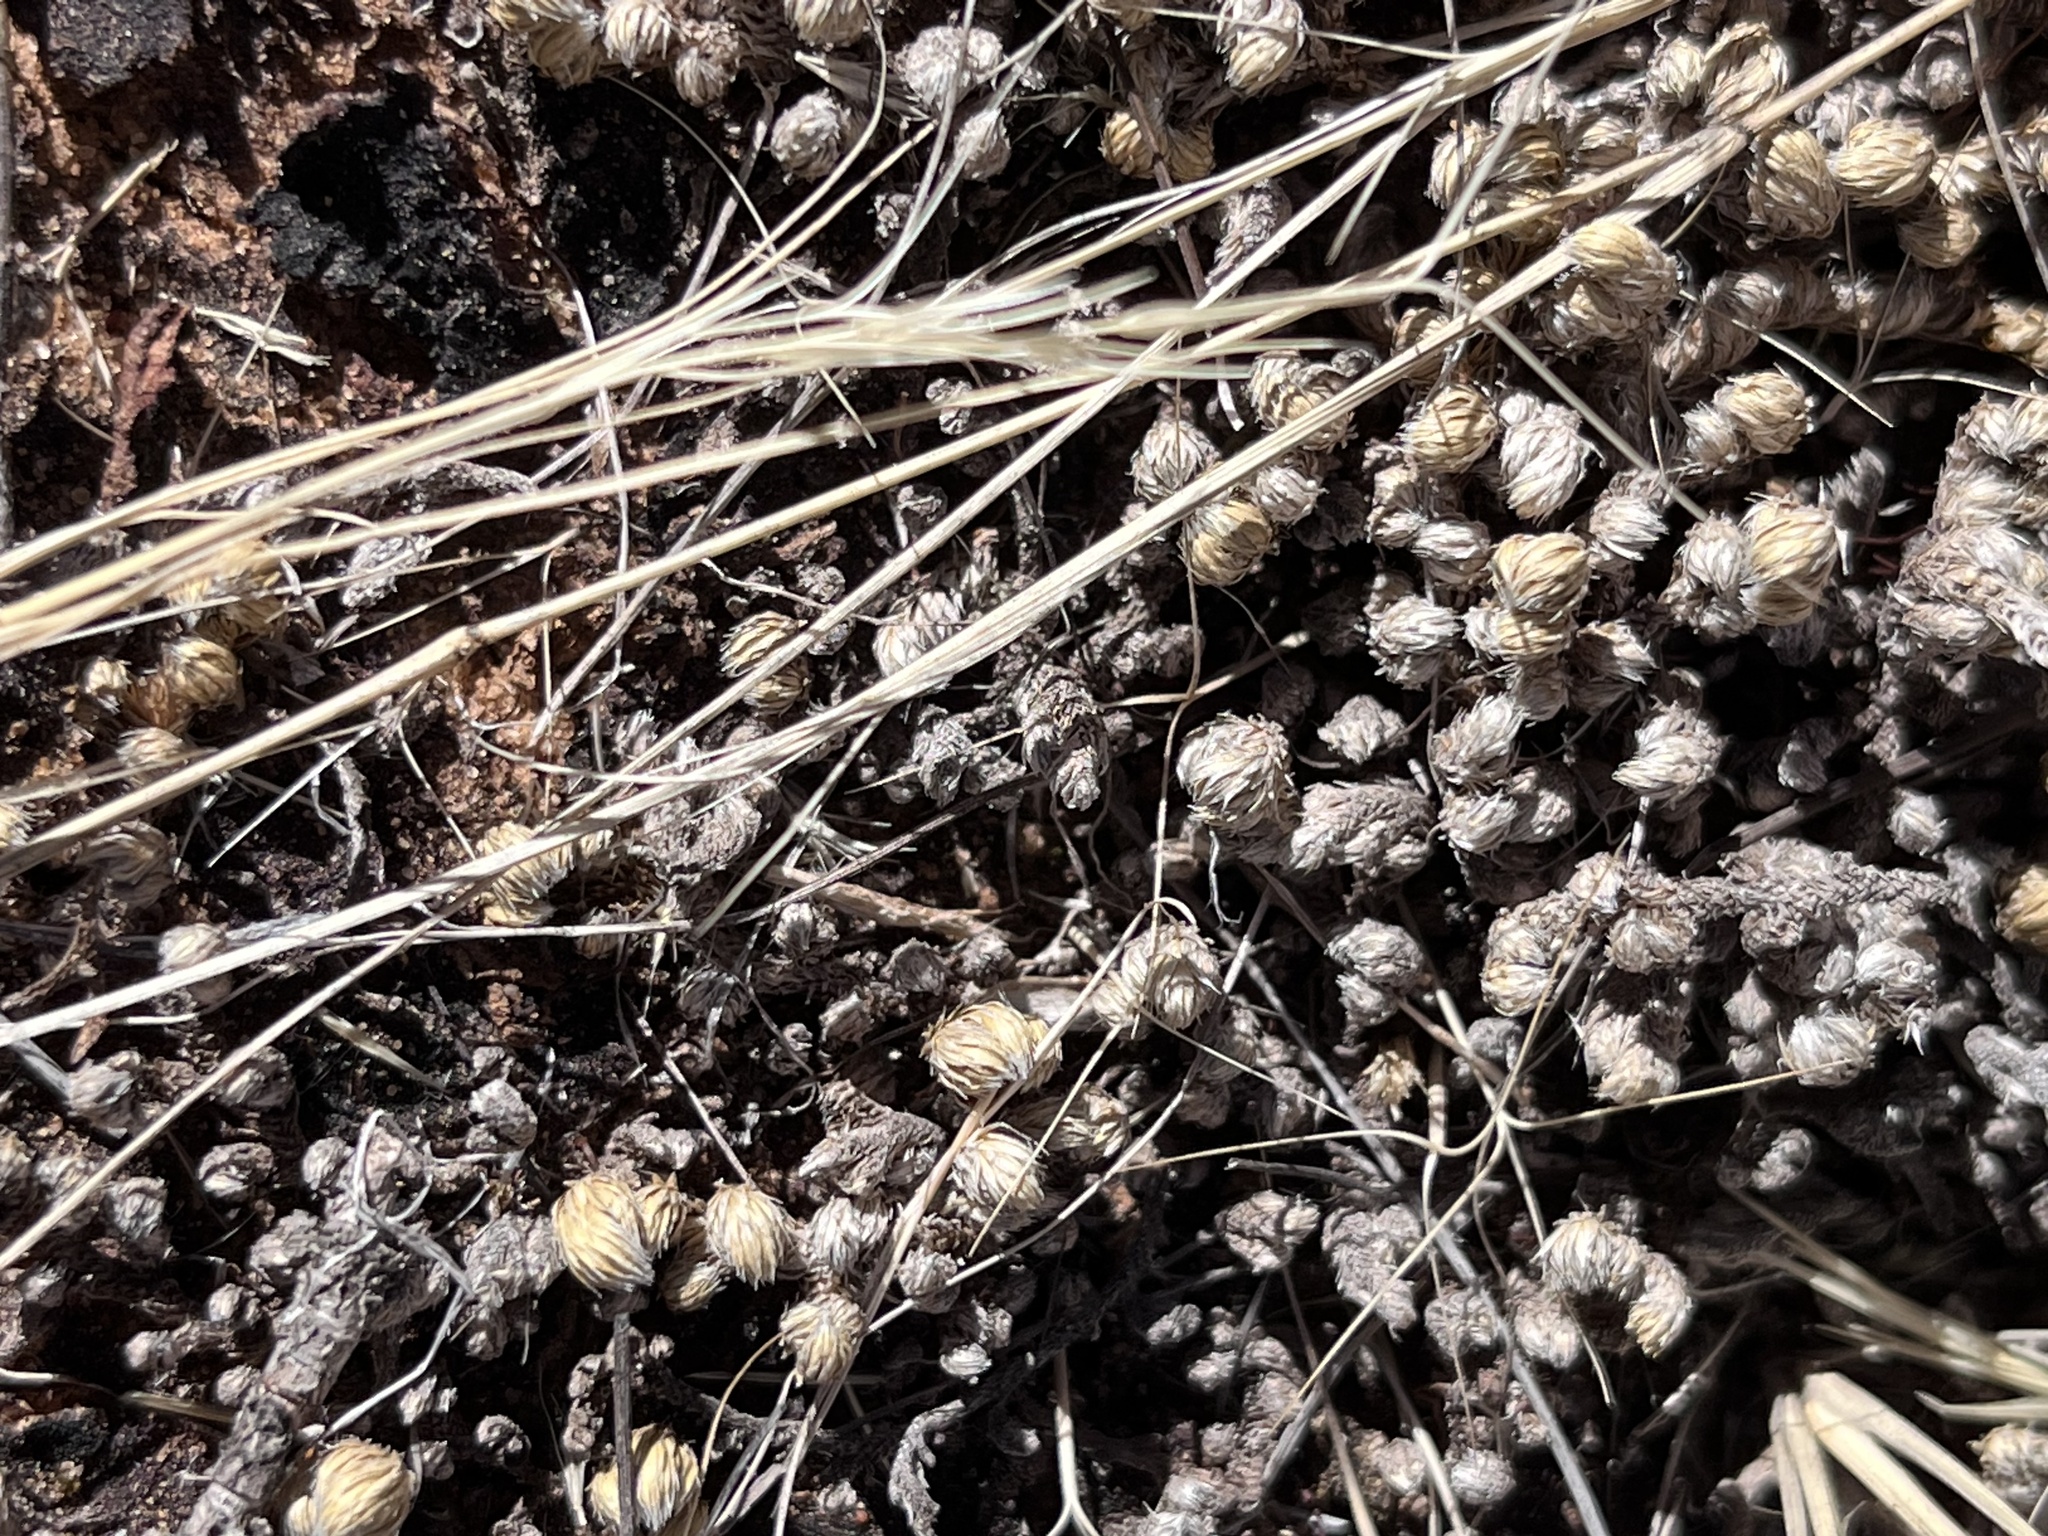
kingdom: Plantae
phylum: Tracheophyta
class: Lycopodiopsida
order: Selaginellales
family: Selaginellaceae
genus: Selaginella
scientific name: Selaginella densa
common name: Mountain spike-moss
